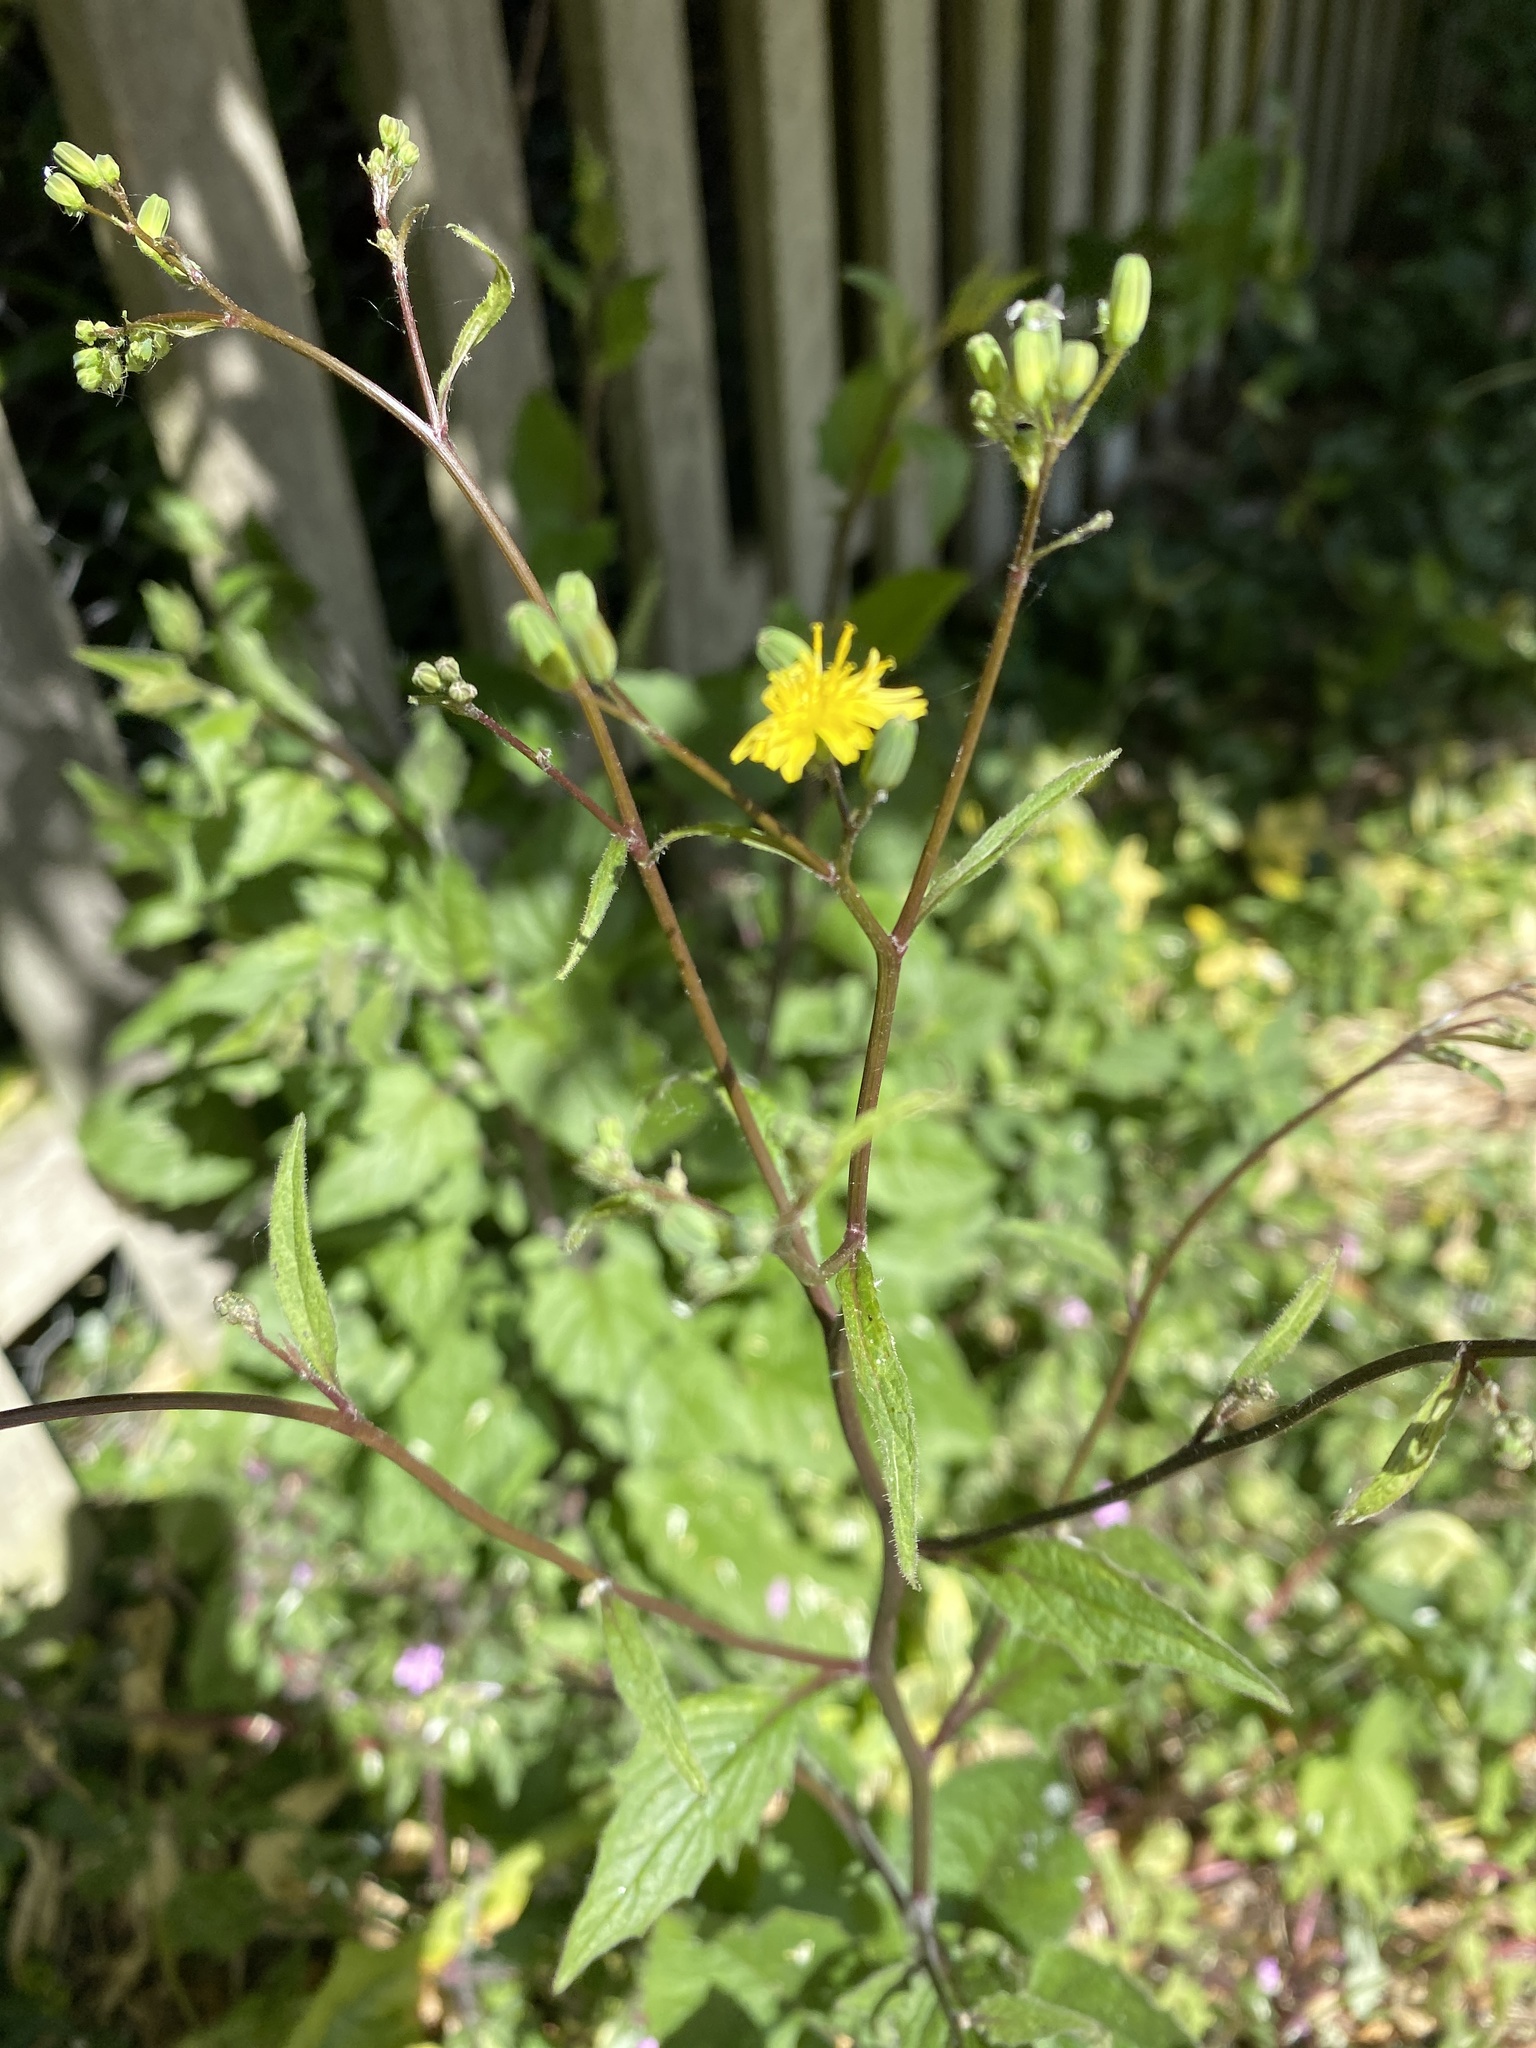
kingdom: Plantae
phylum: Tracheophyta
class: Magnoliopsida
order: Asterales
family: Asteraceae
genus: Lapsana
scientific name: Lapsana communis
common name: Nipplewort
